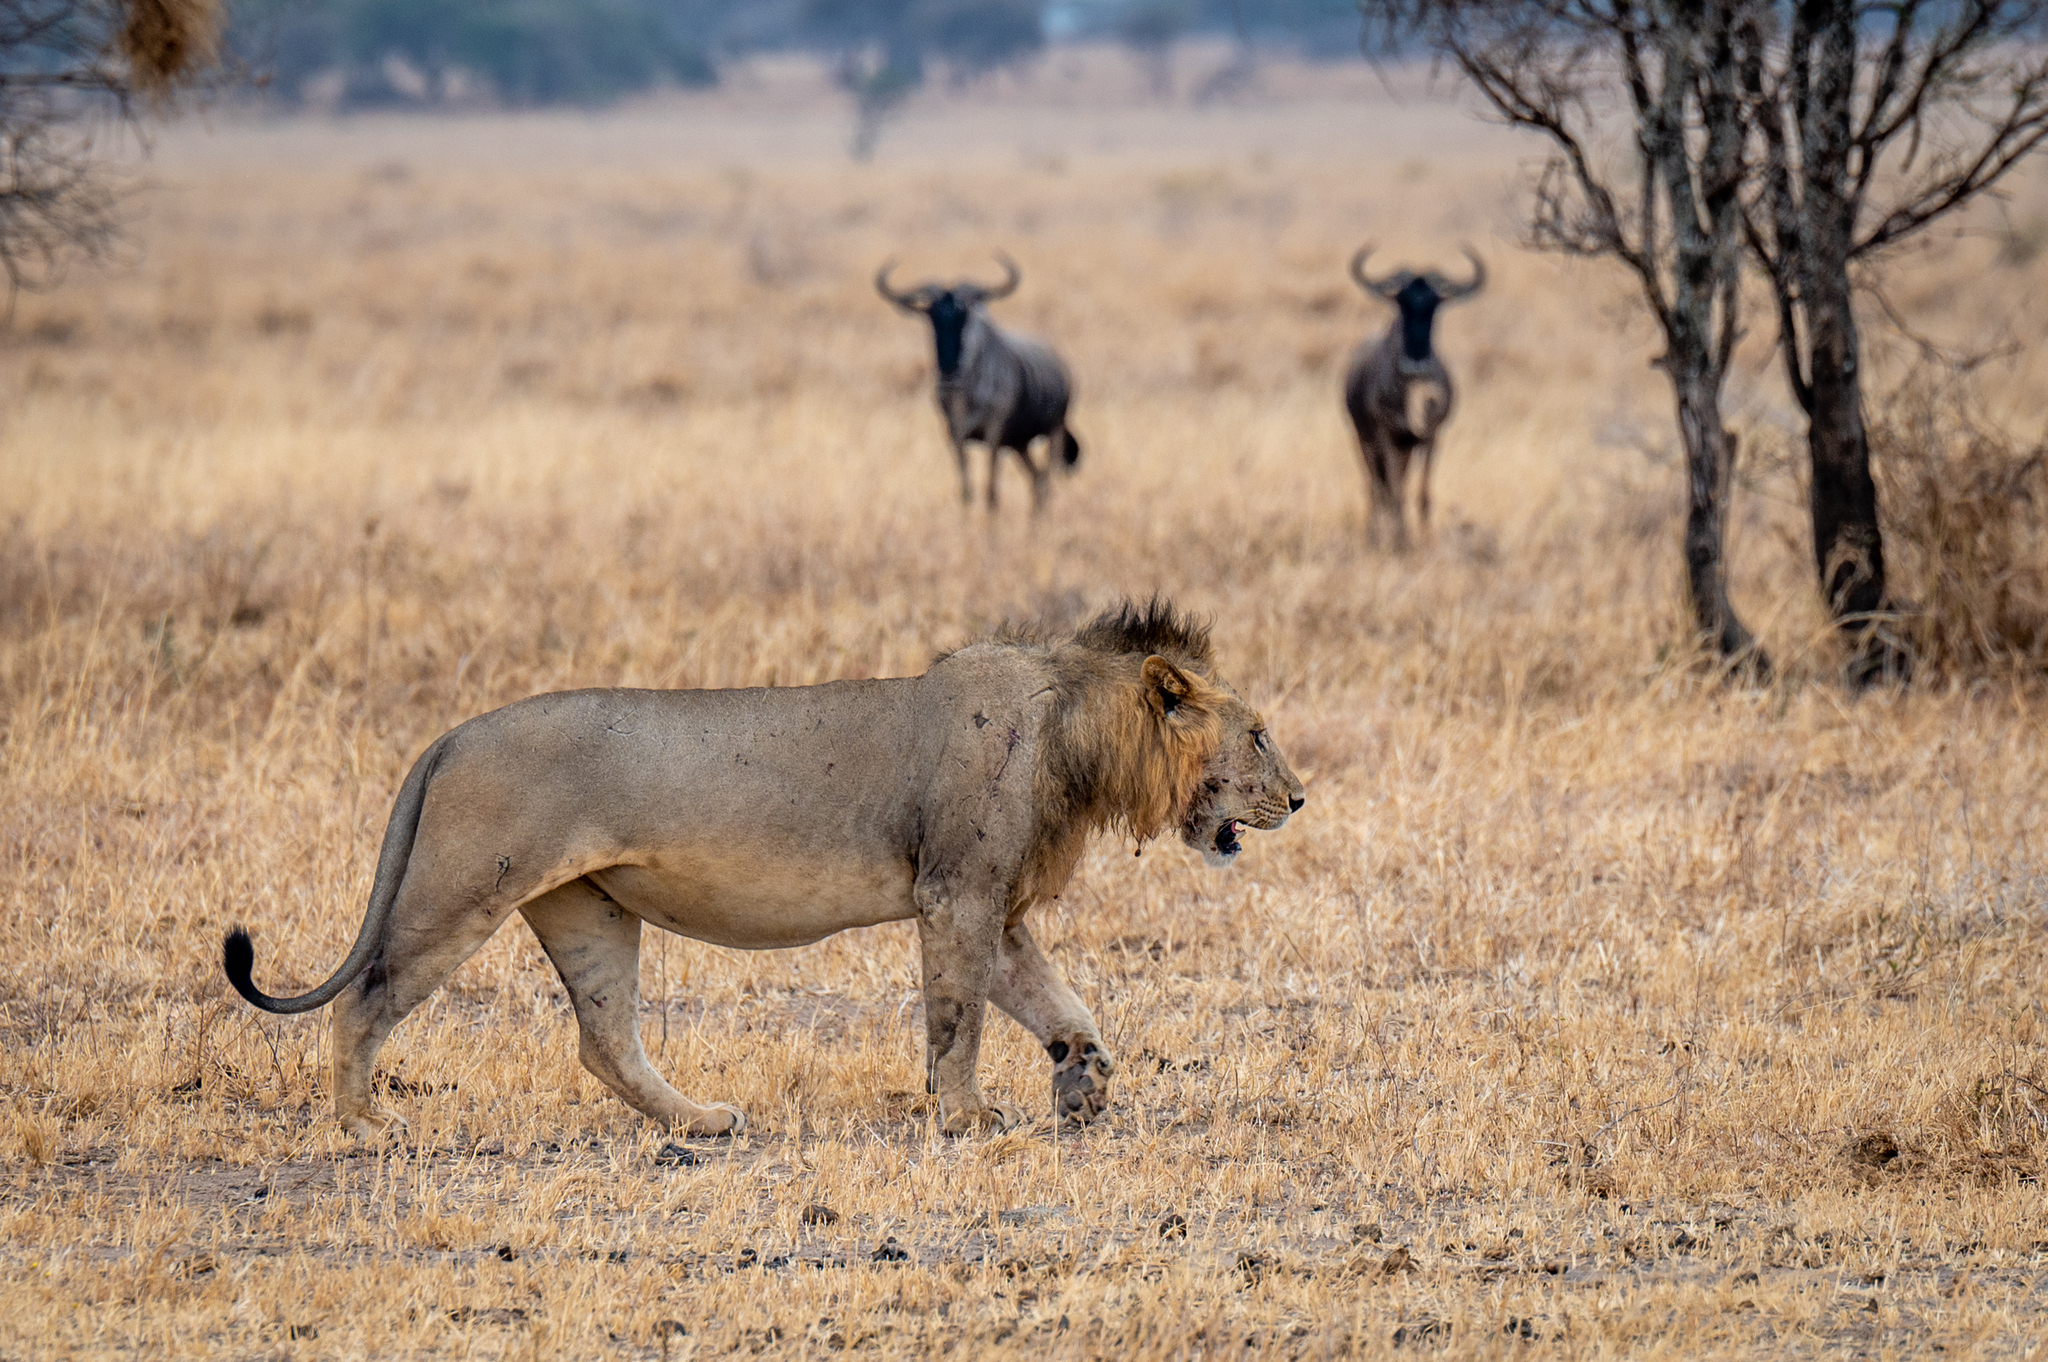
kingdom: Animalia
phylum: Chordata
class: Mammalia
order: Carnivora
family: Felidae
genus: Panthera
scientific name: Panthera leo
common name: Lion
